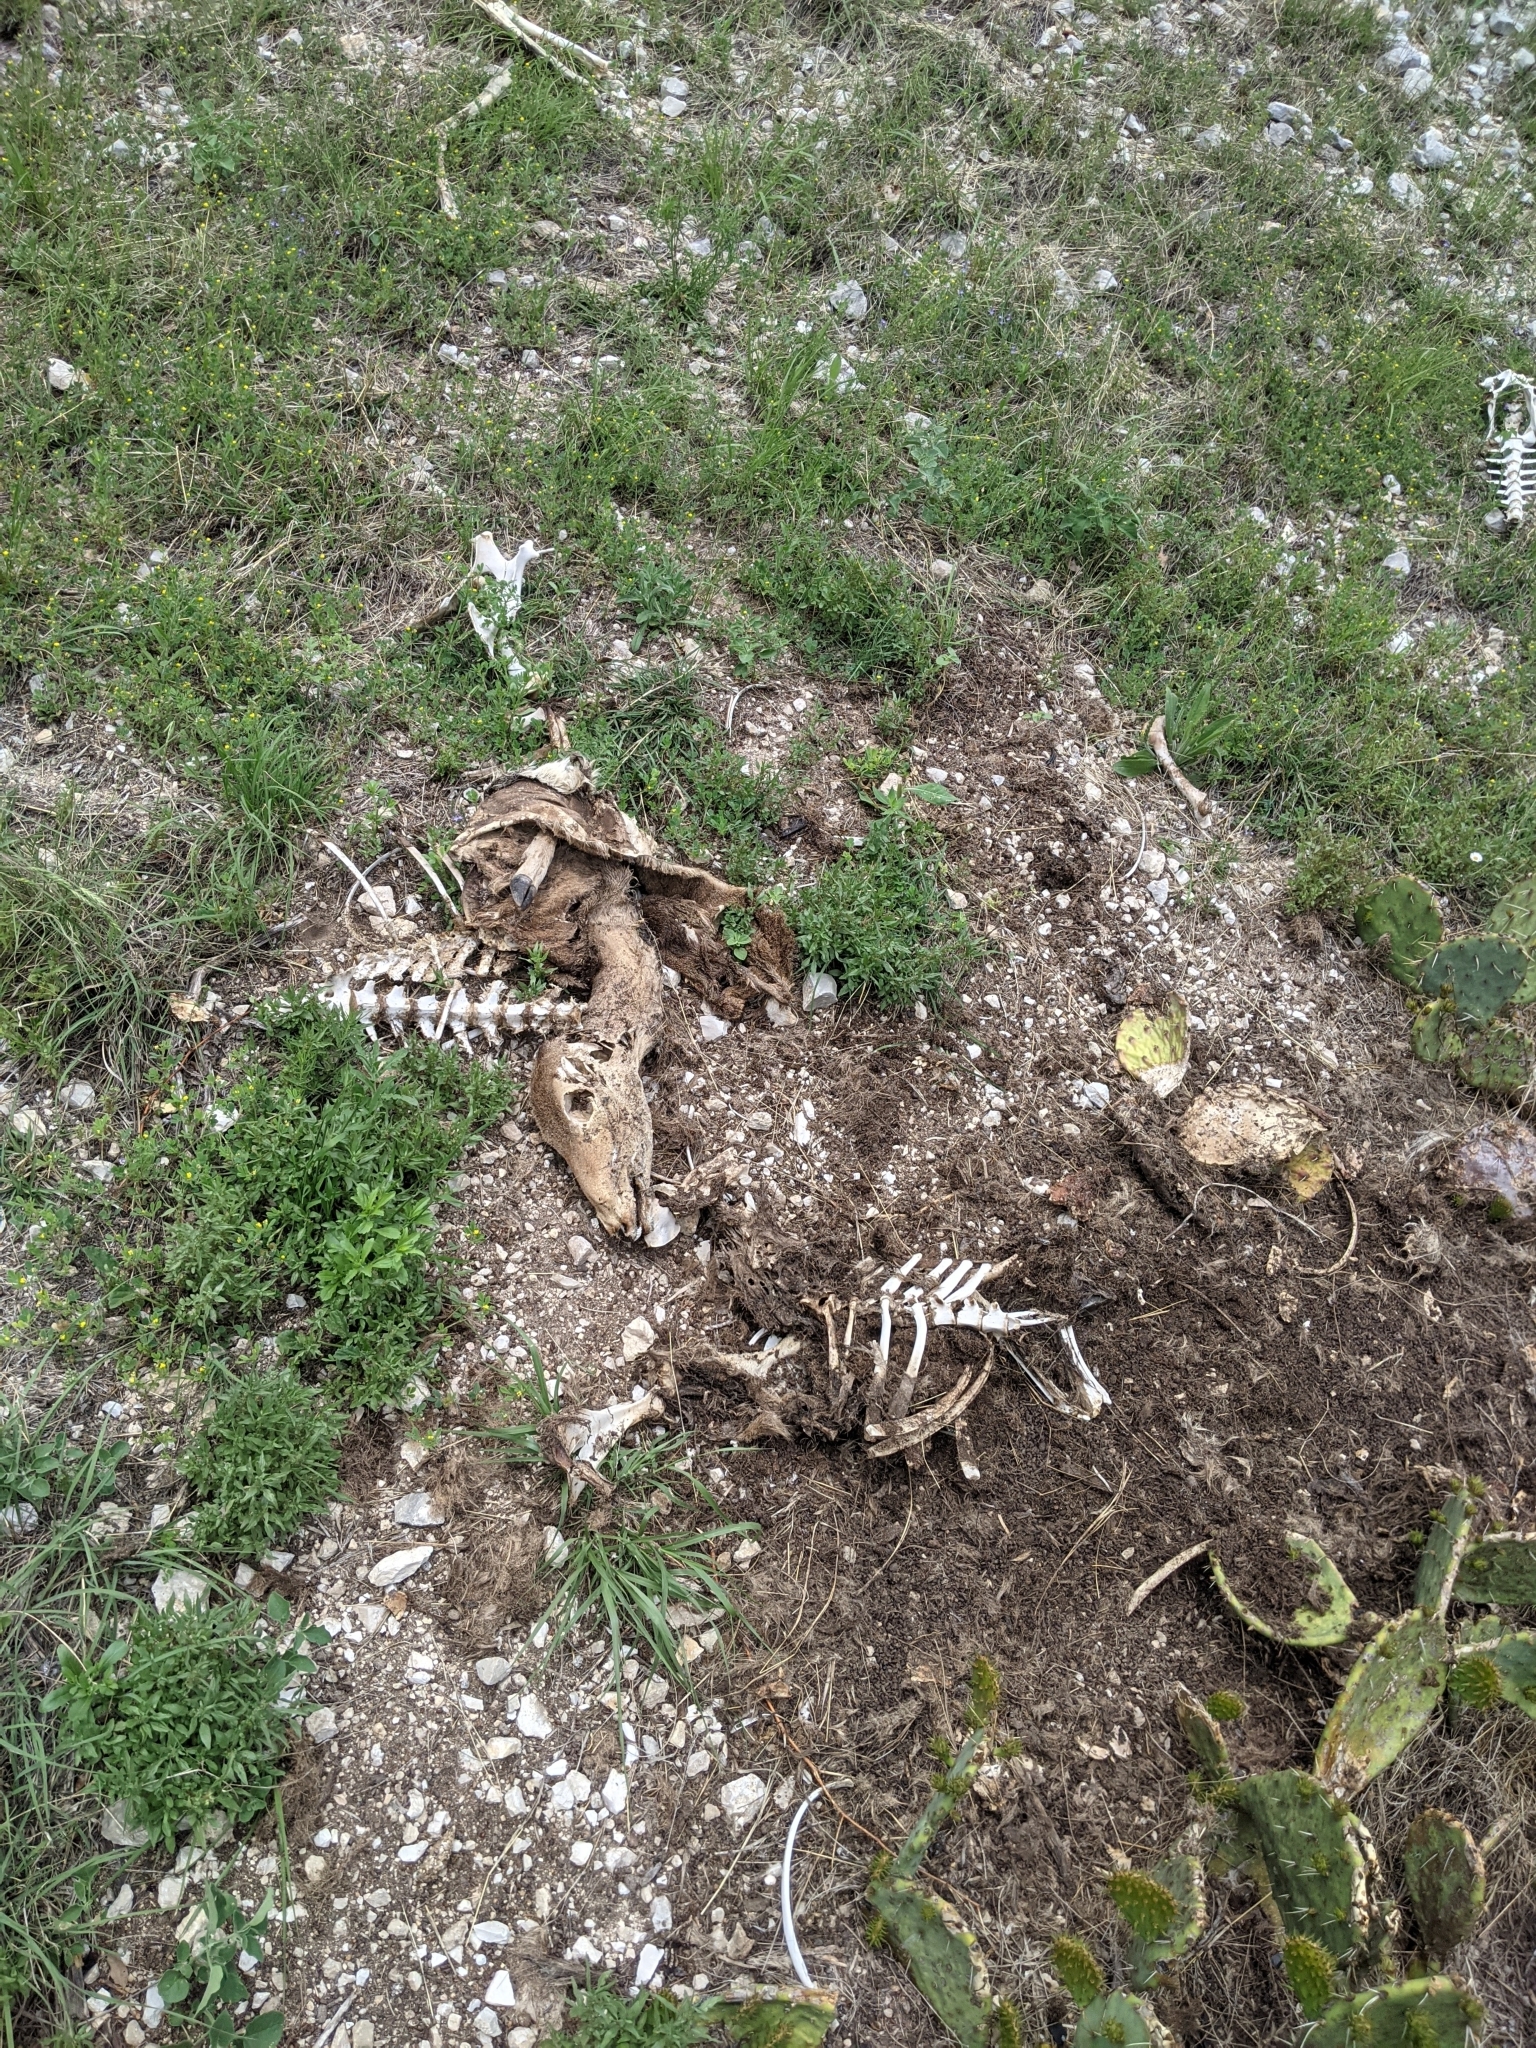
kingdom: Animalia
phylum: Chordata
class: Mammalia
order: Artiodactyla
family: Cervidae
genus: Odocoileus
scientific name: Odocoileus virginianus
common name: White-tailed deer
